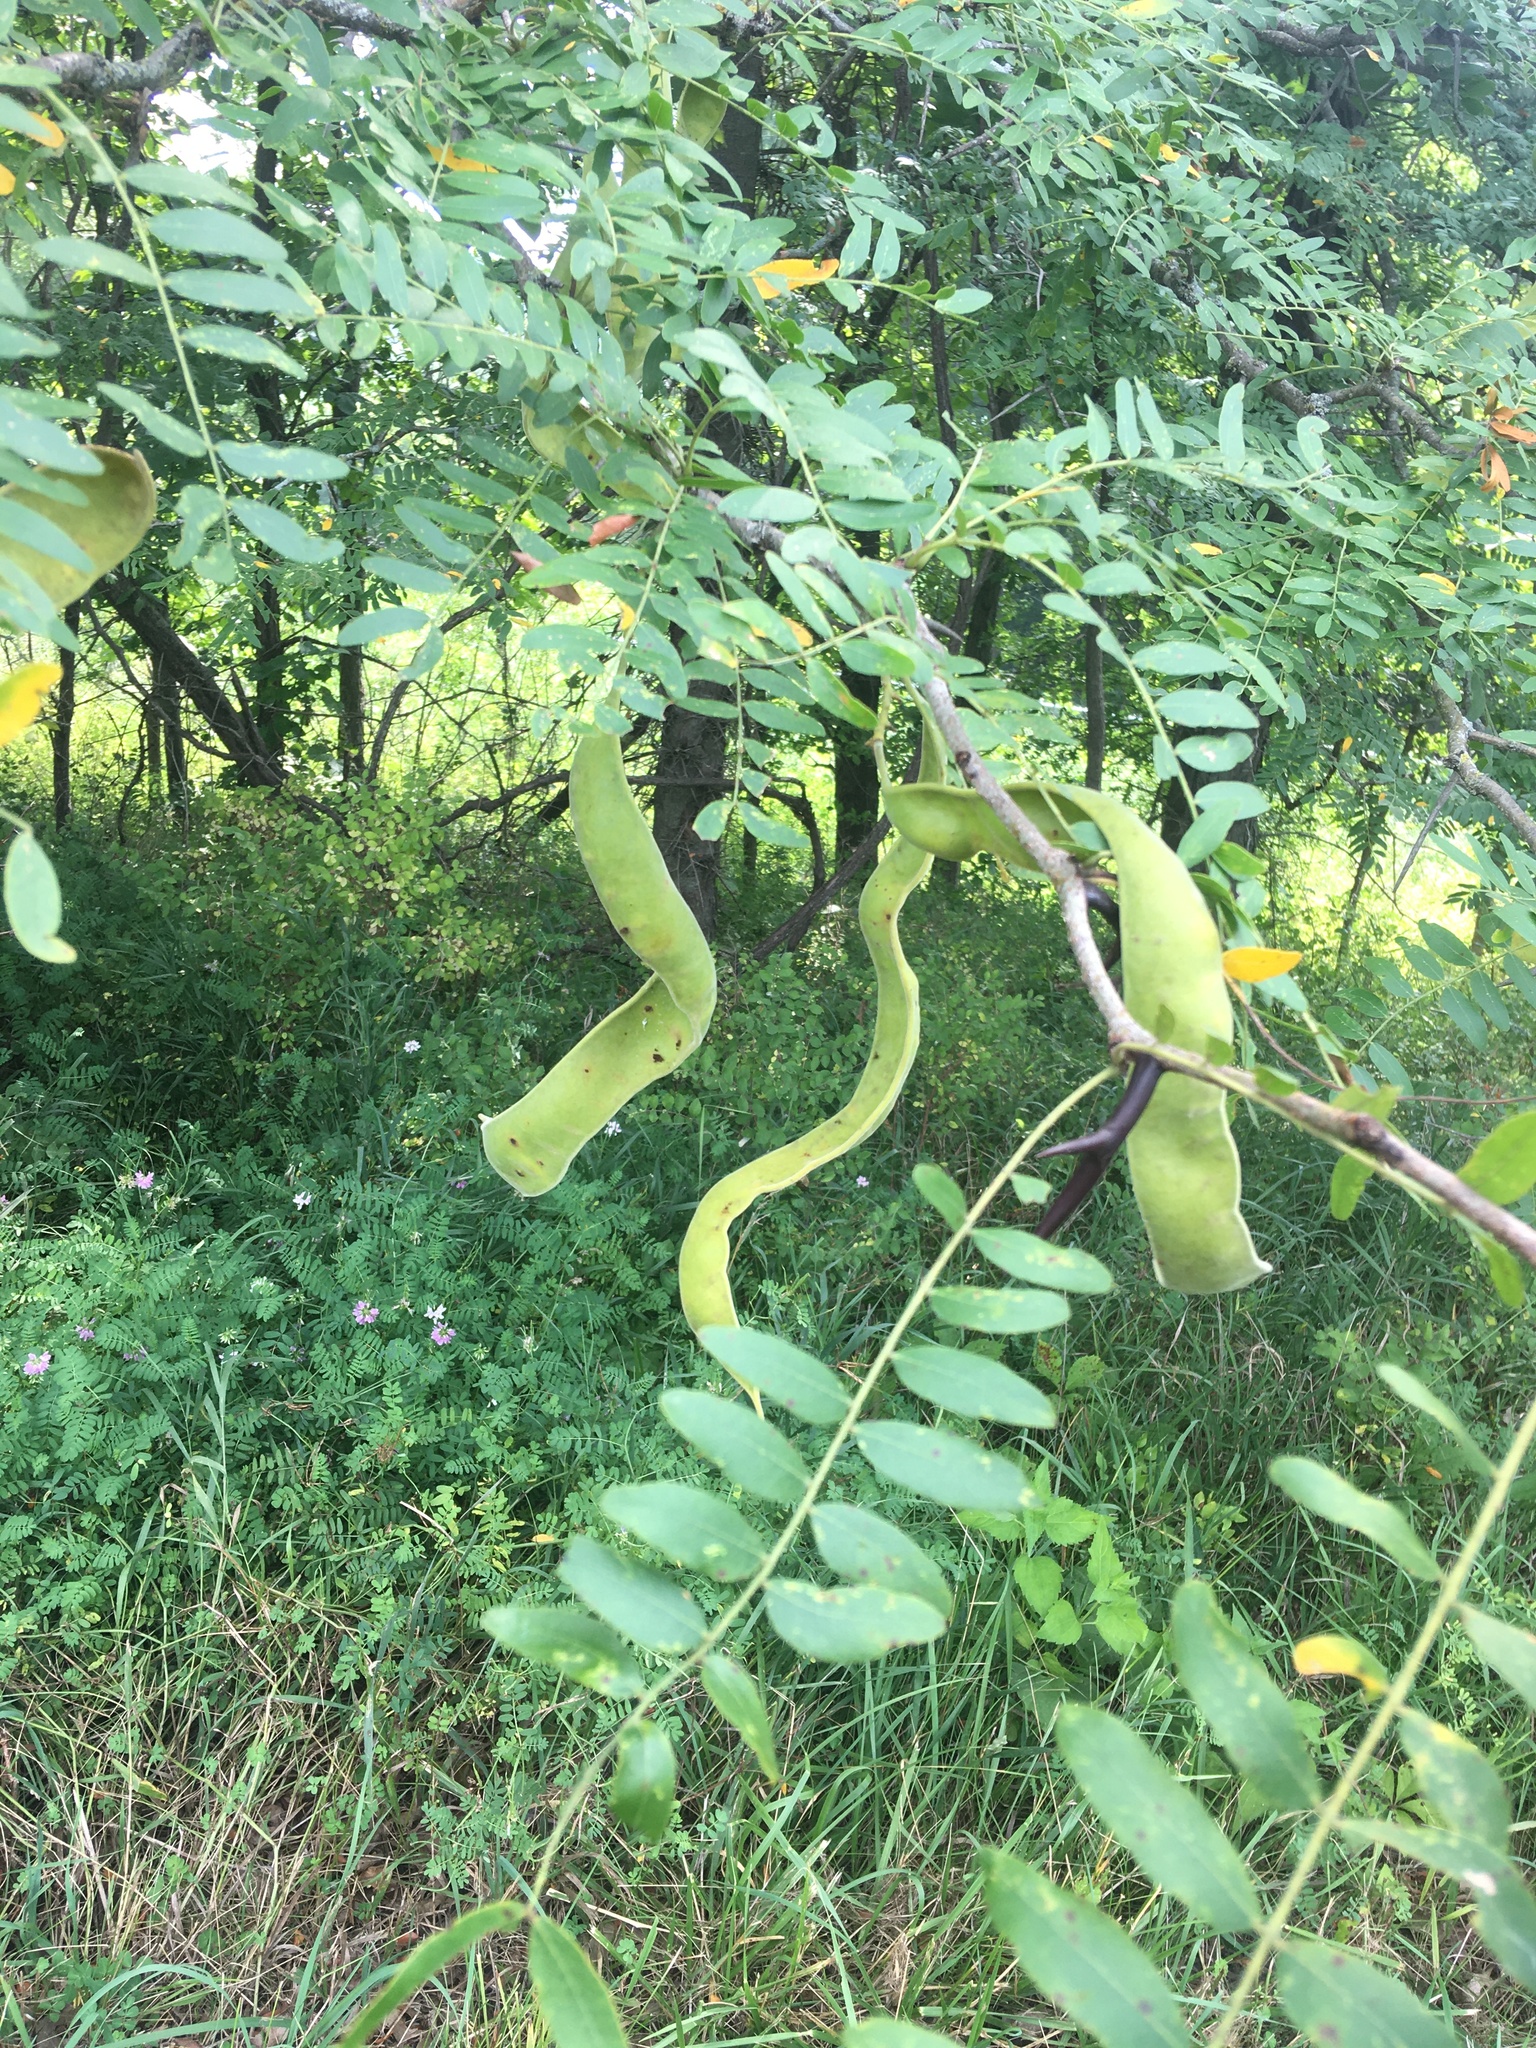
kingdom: Plantae
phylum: Tracheophyta
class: Magnoliopsida
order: Fabales
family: Fabaceae
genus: Gleditsia
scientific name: Gleditsia triacanthos
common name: Common honeylocust
